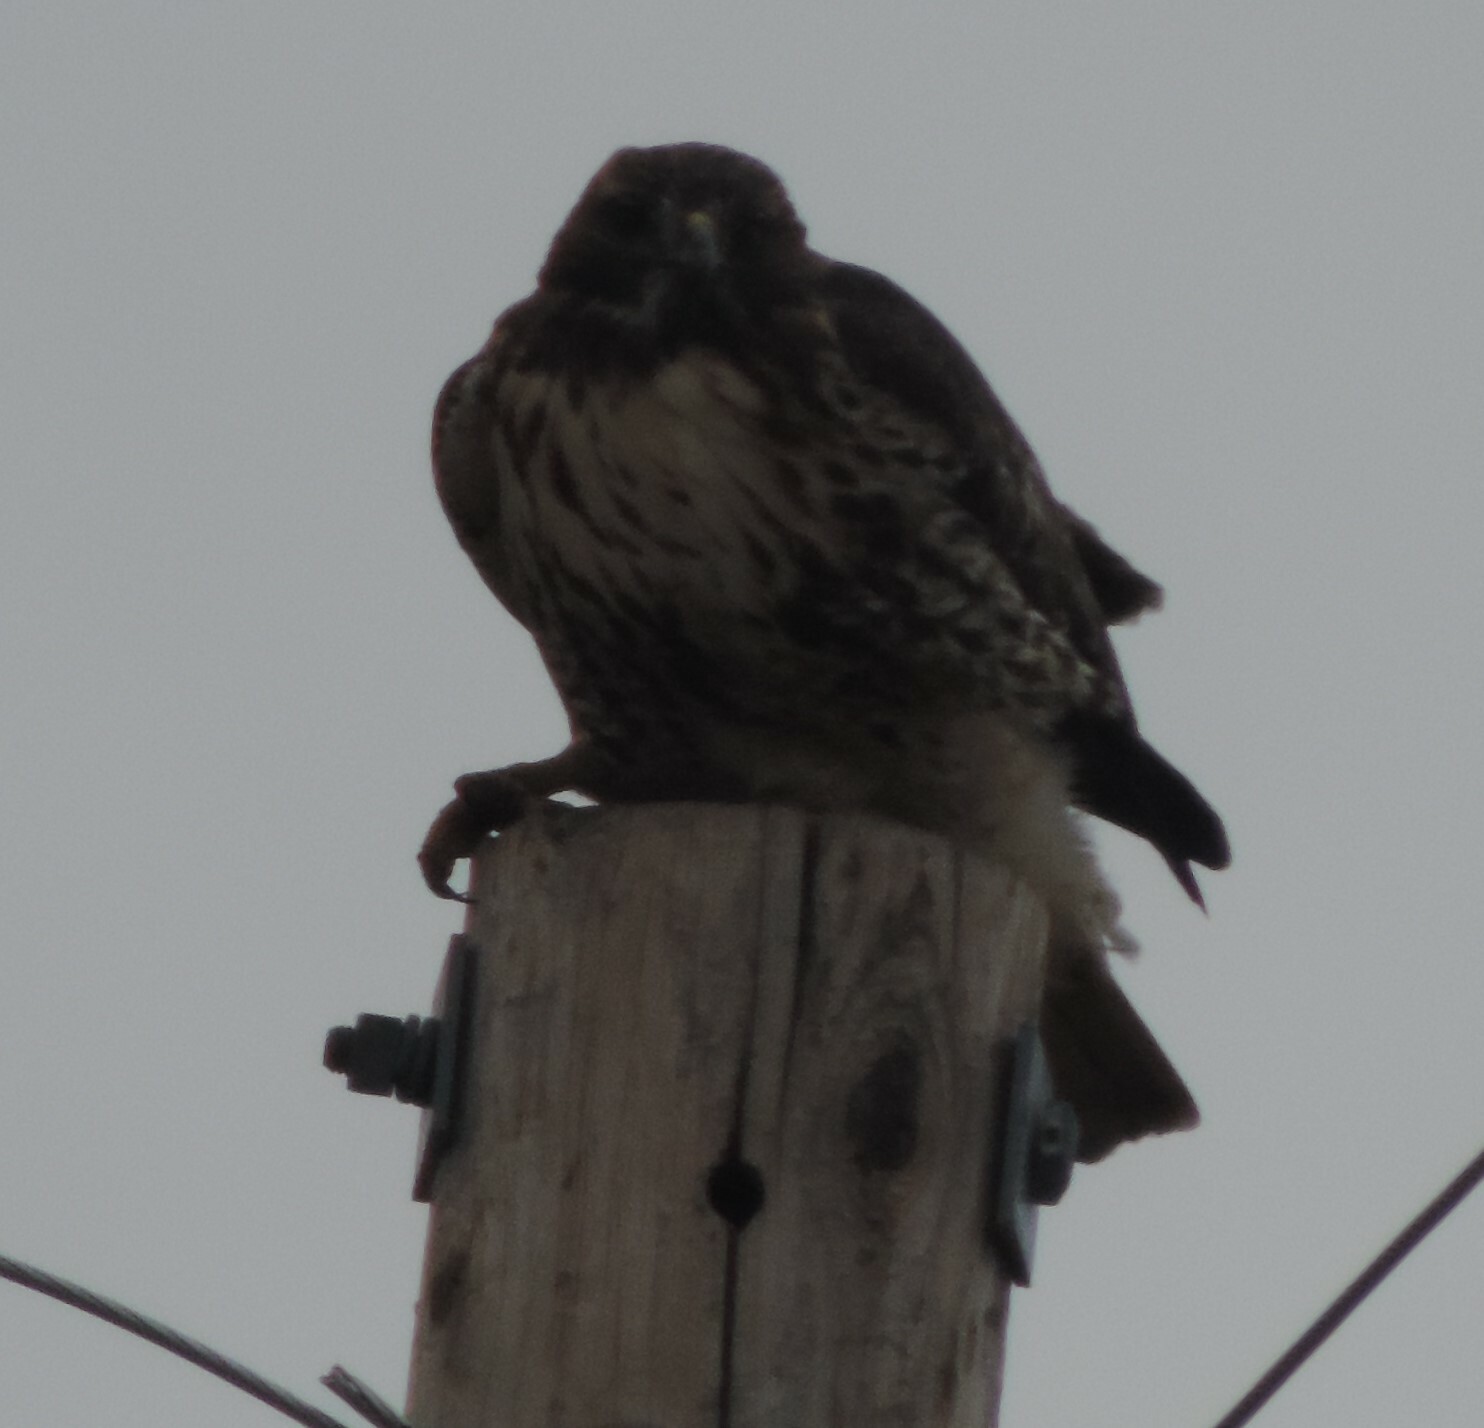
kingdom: Animalia
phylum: Chordata
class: Aves
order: Accipitriformes
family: Accipitridae
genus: Buteo
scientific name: Buteo jamaicensis
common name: Red-tailed hawk
